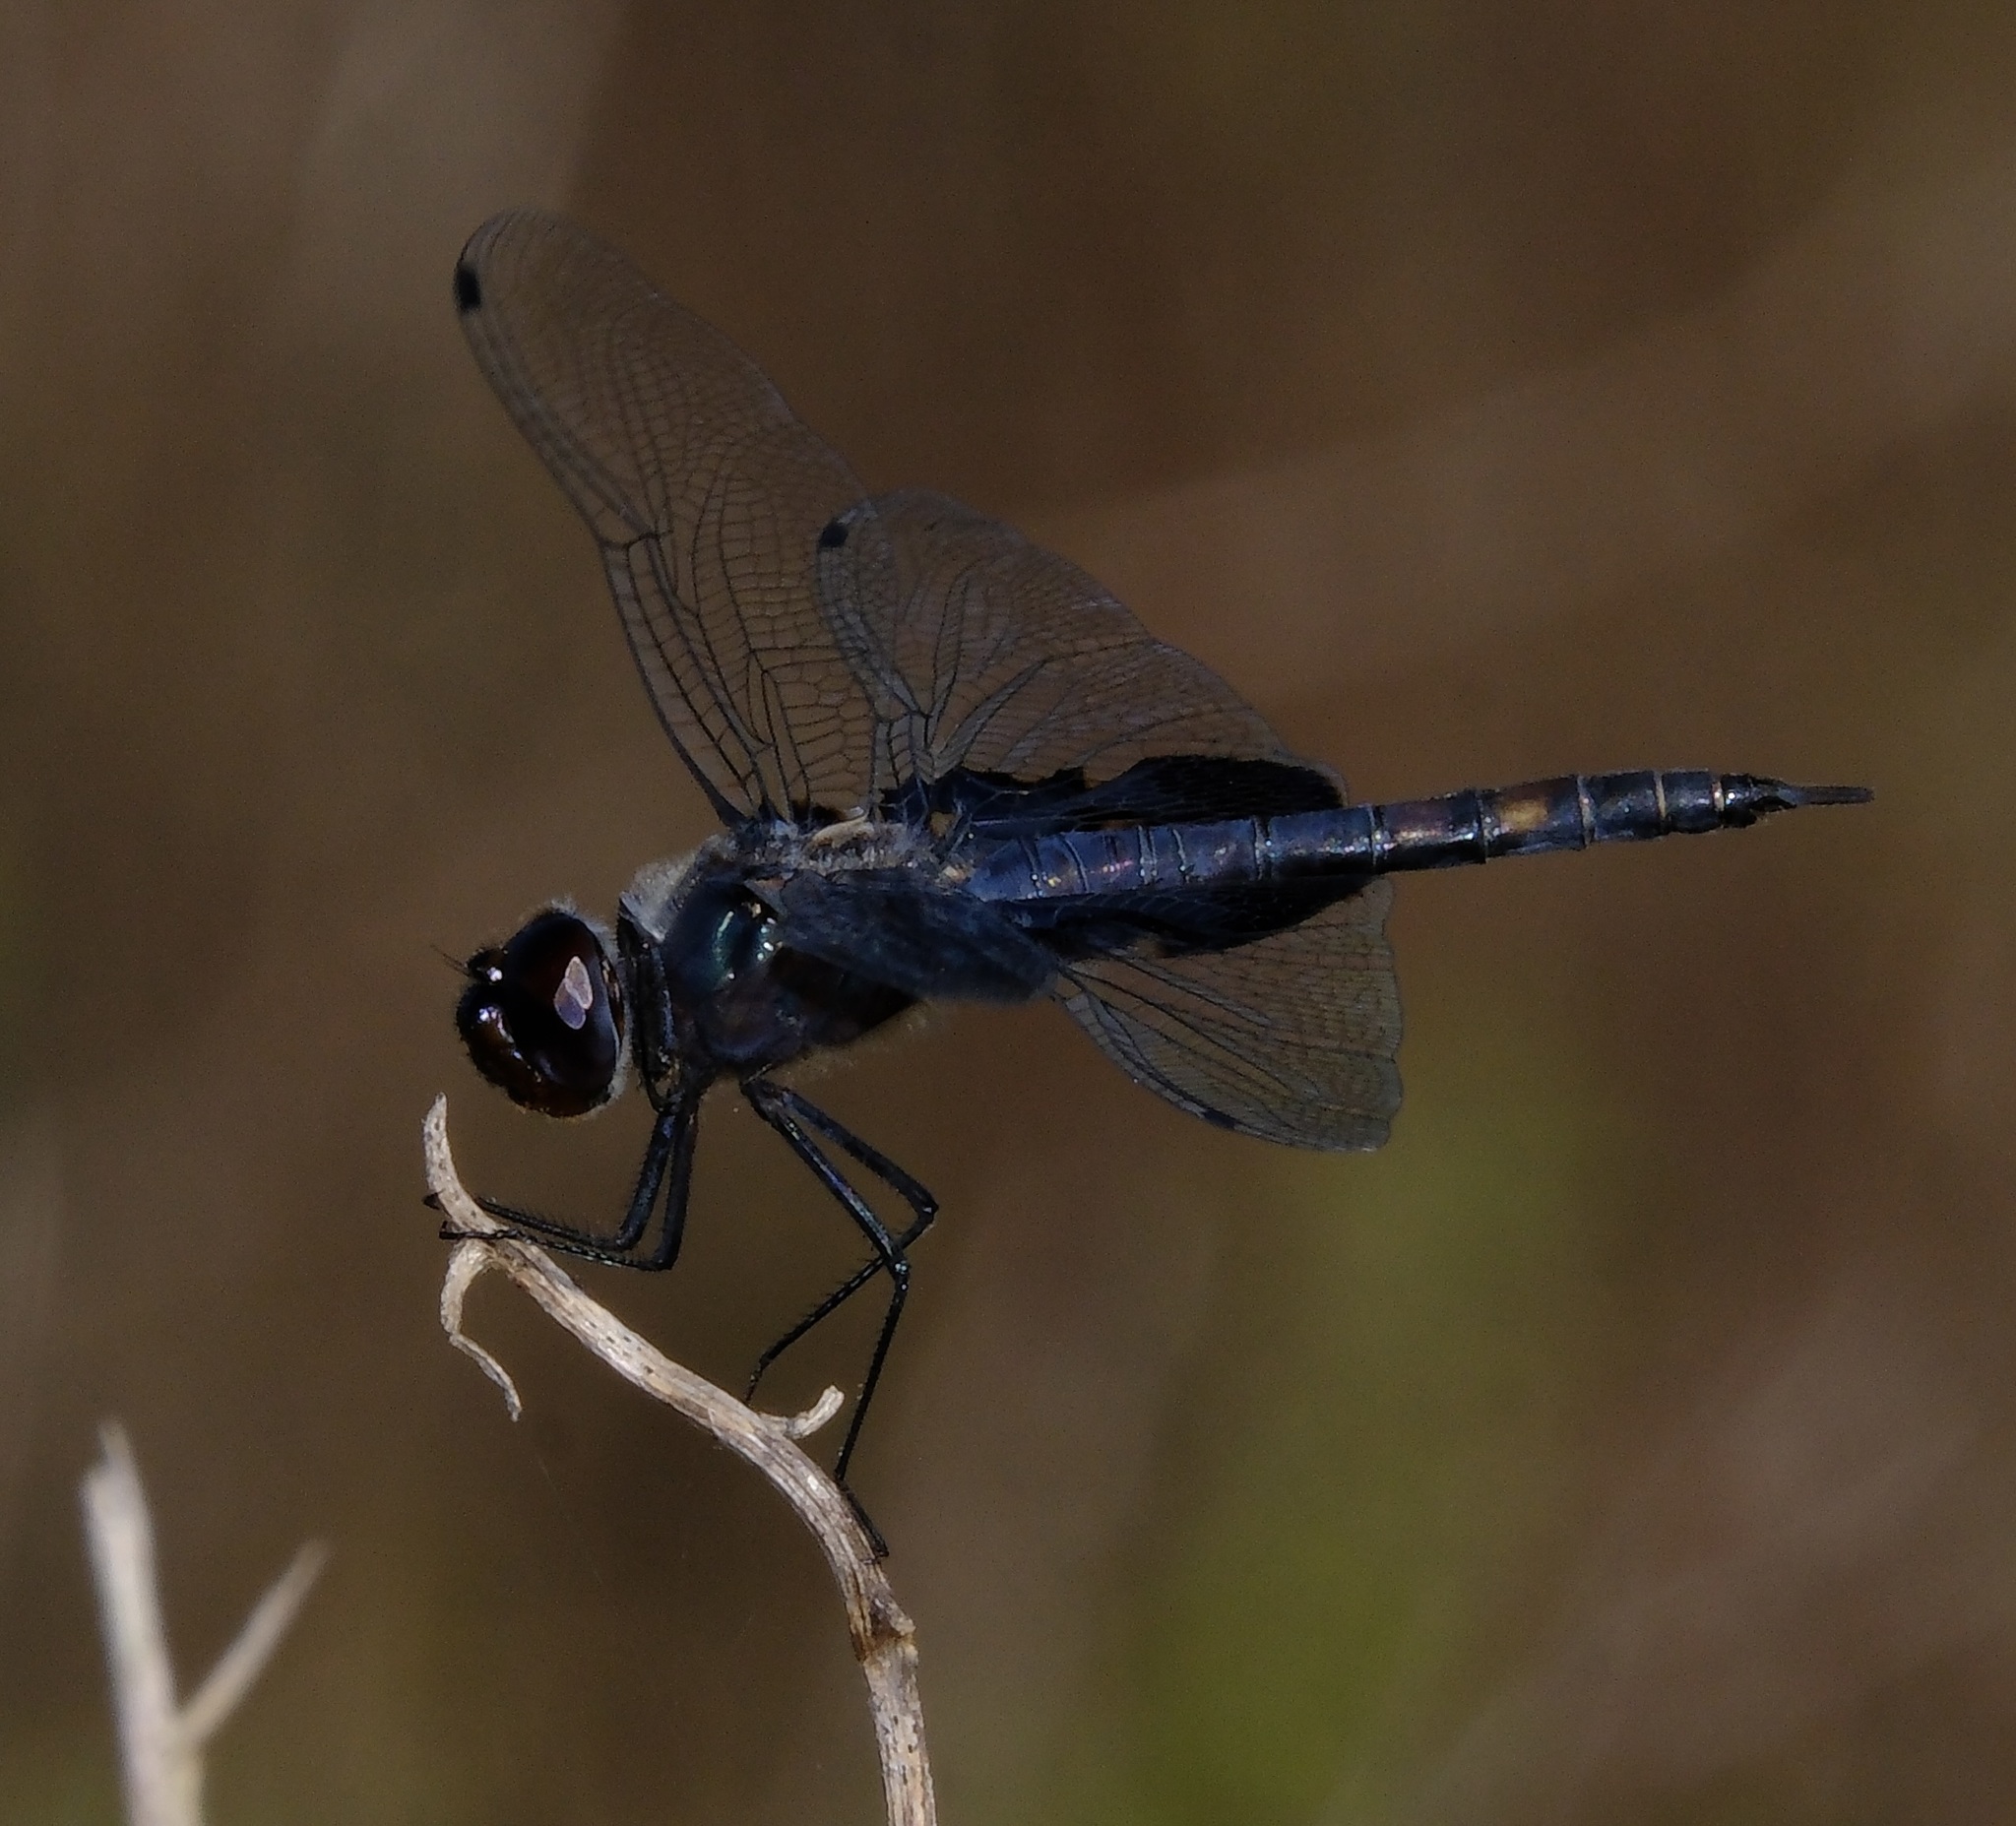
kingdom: Animalia
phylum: Arthropoda
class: Insecta
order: Odonata
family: Libellulidae
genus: Tramea
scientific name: Tramea lacerata
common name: Black saddlebags
